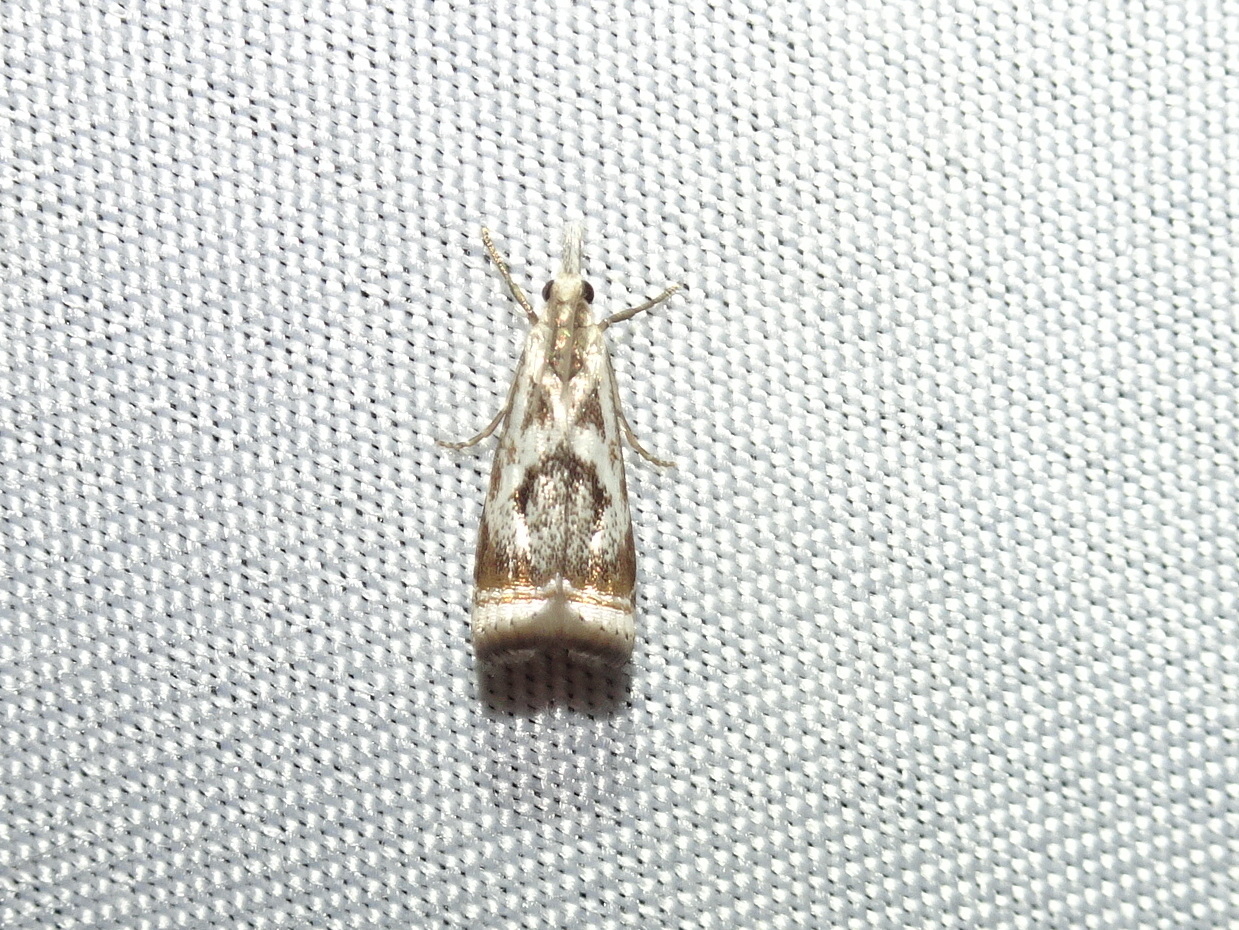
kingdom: Animalia
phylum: Arthropoda
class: Insecta
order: Lepidoptera
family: Crambidae
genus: Microcrambus
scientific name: Microcrambus elegans
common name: Elegant grass-veneer
